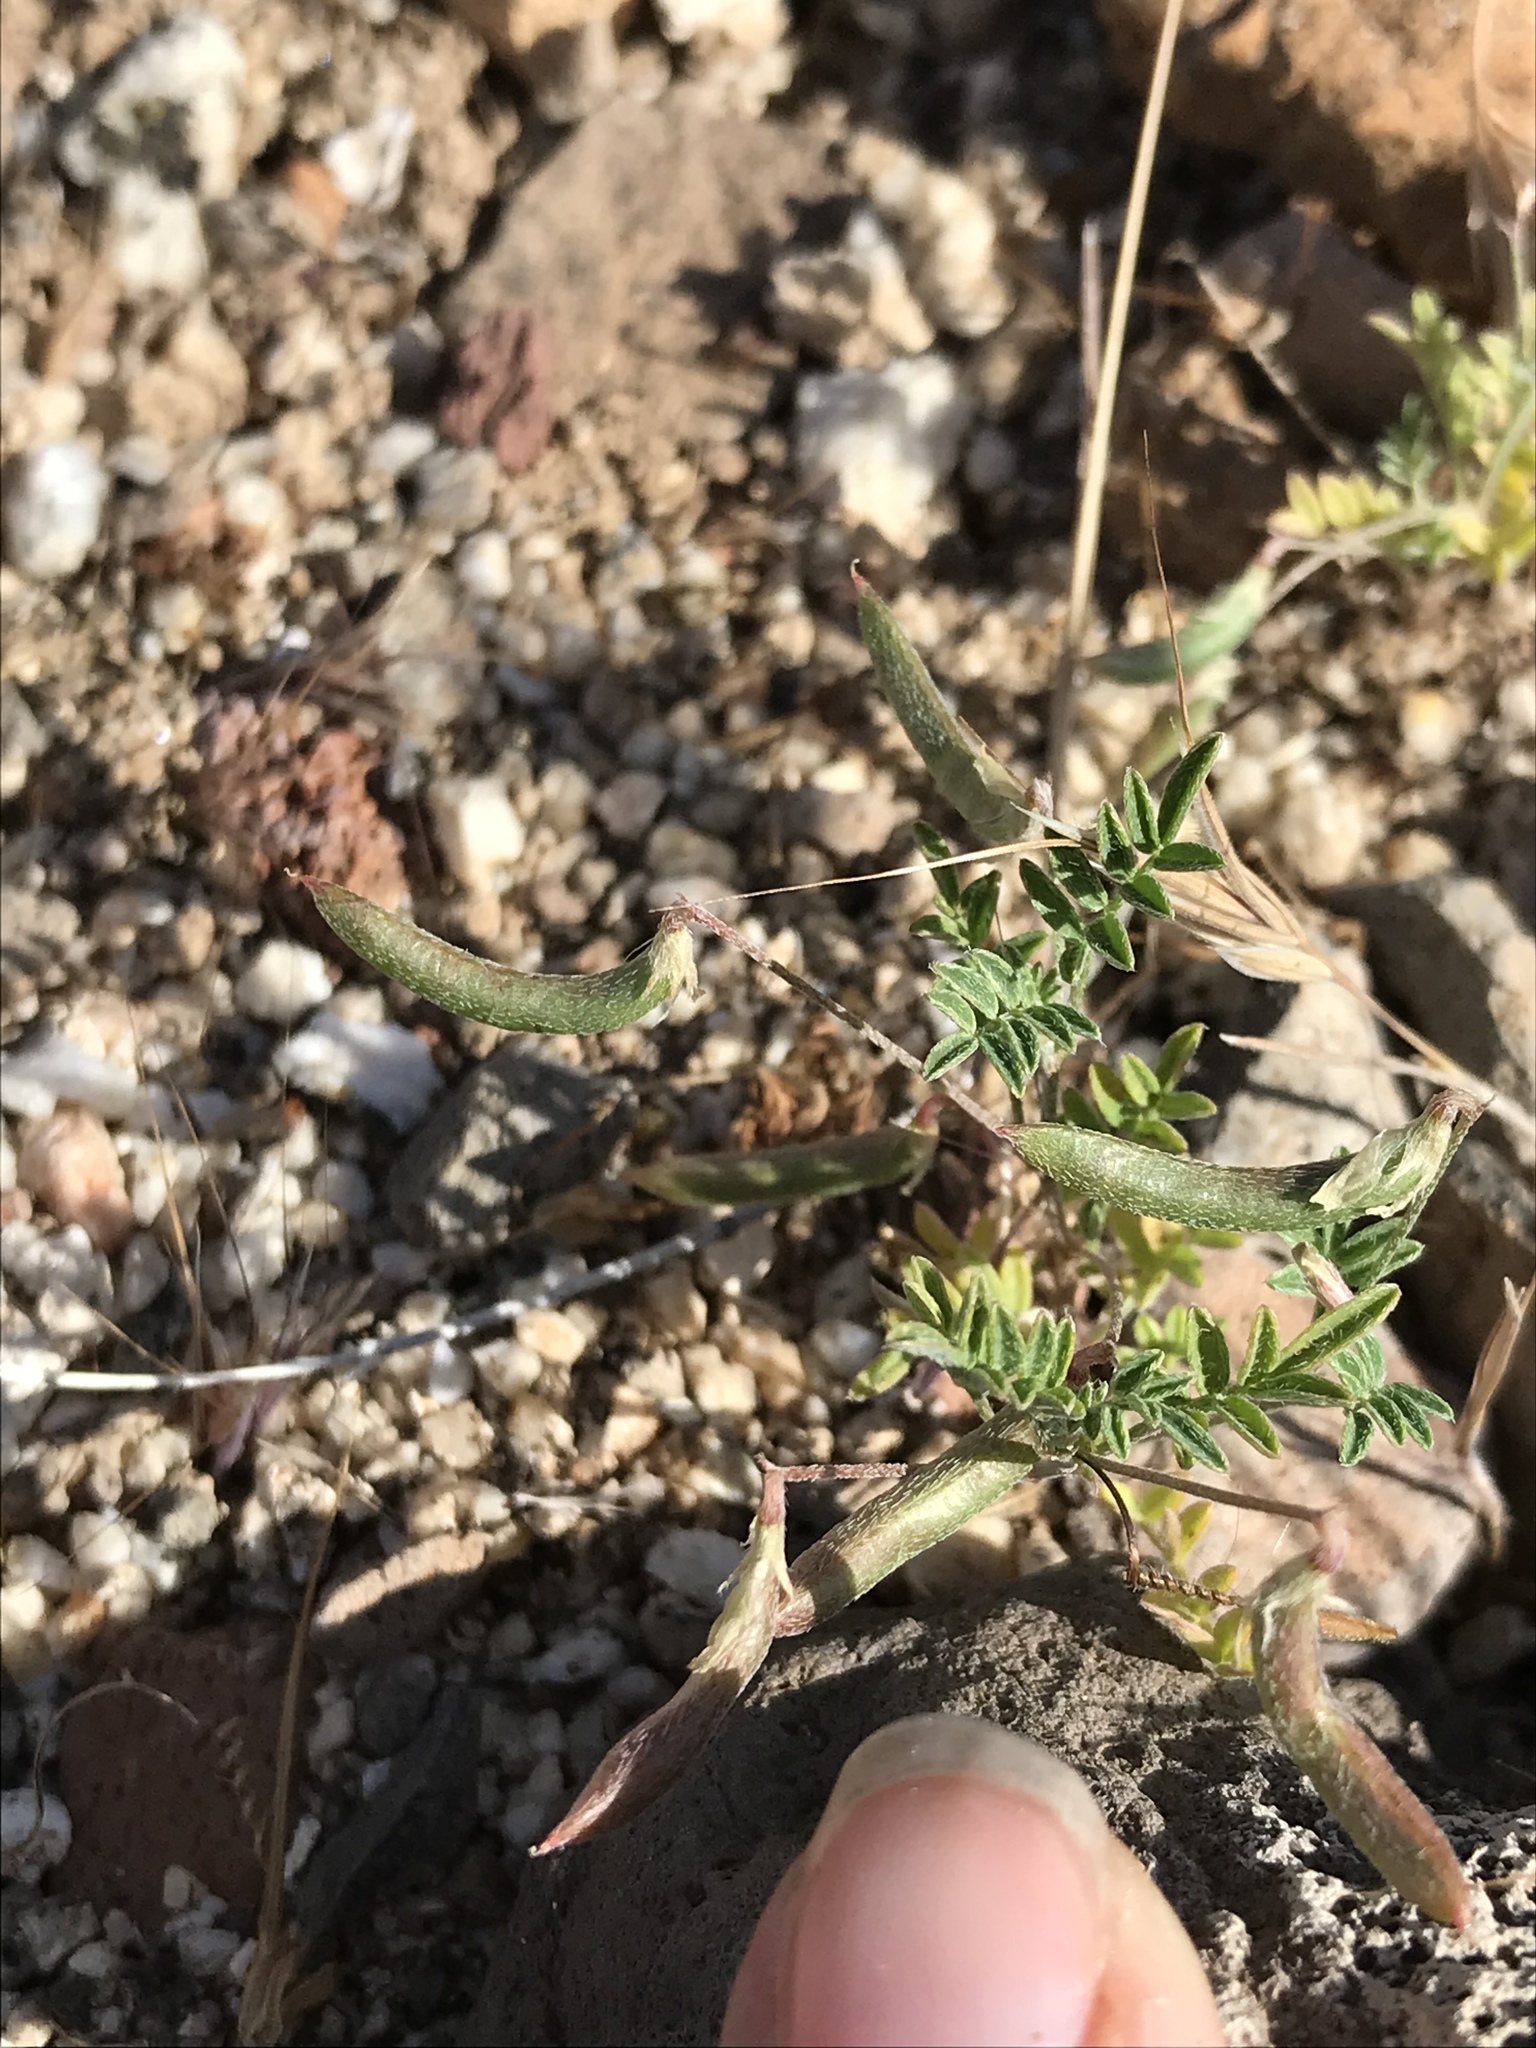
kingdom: Plantae
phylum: Tracheophyta
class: Magnoliopsida
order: Fabales
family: Fabaceae
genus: Astragalus
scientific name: Astragalus acutirostris
